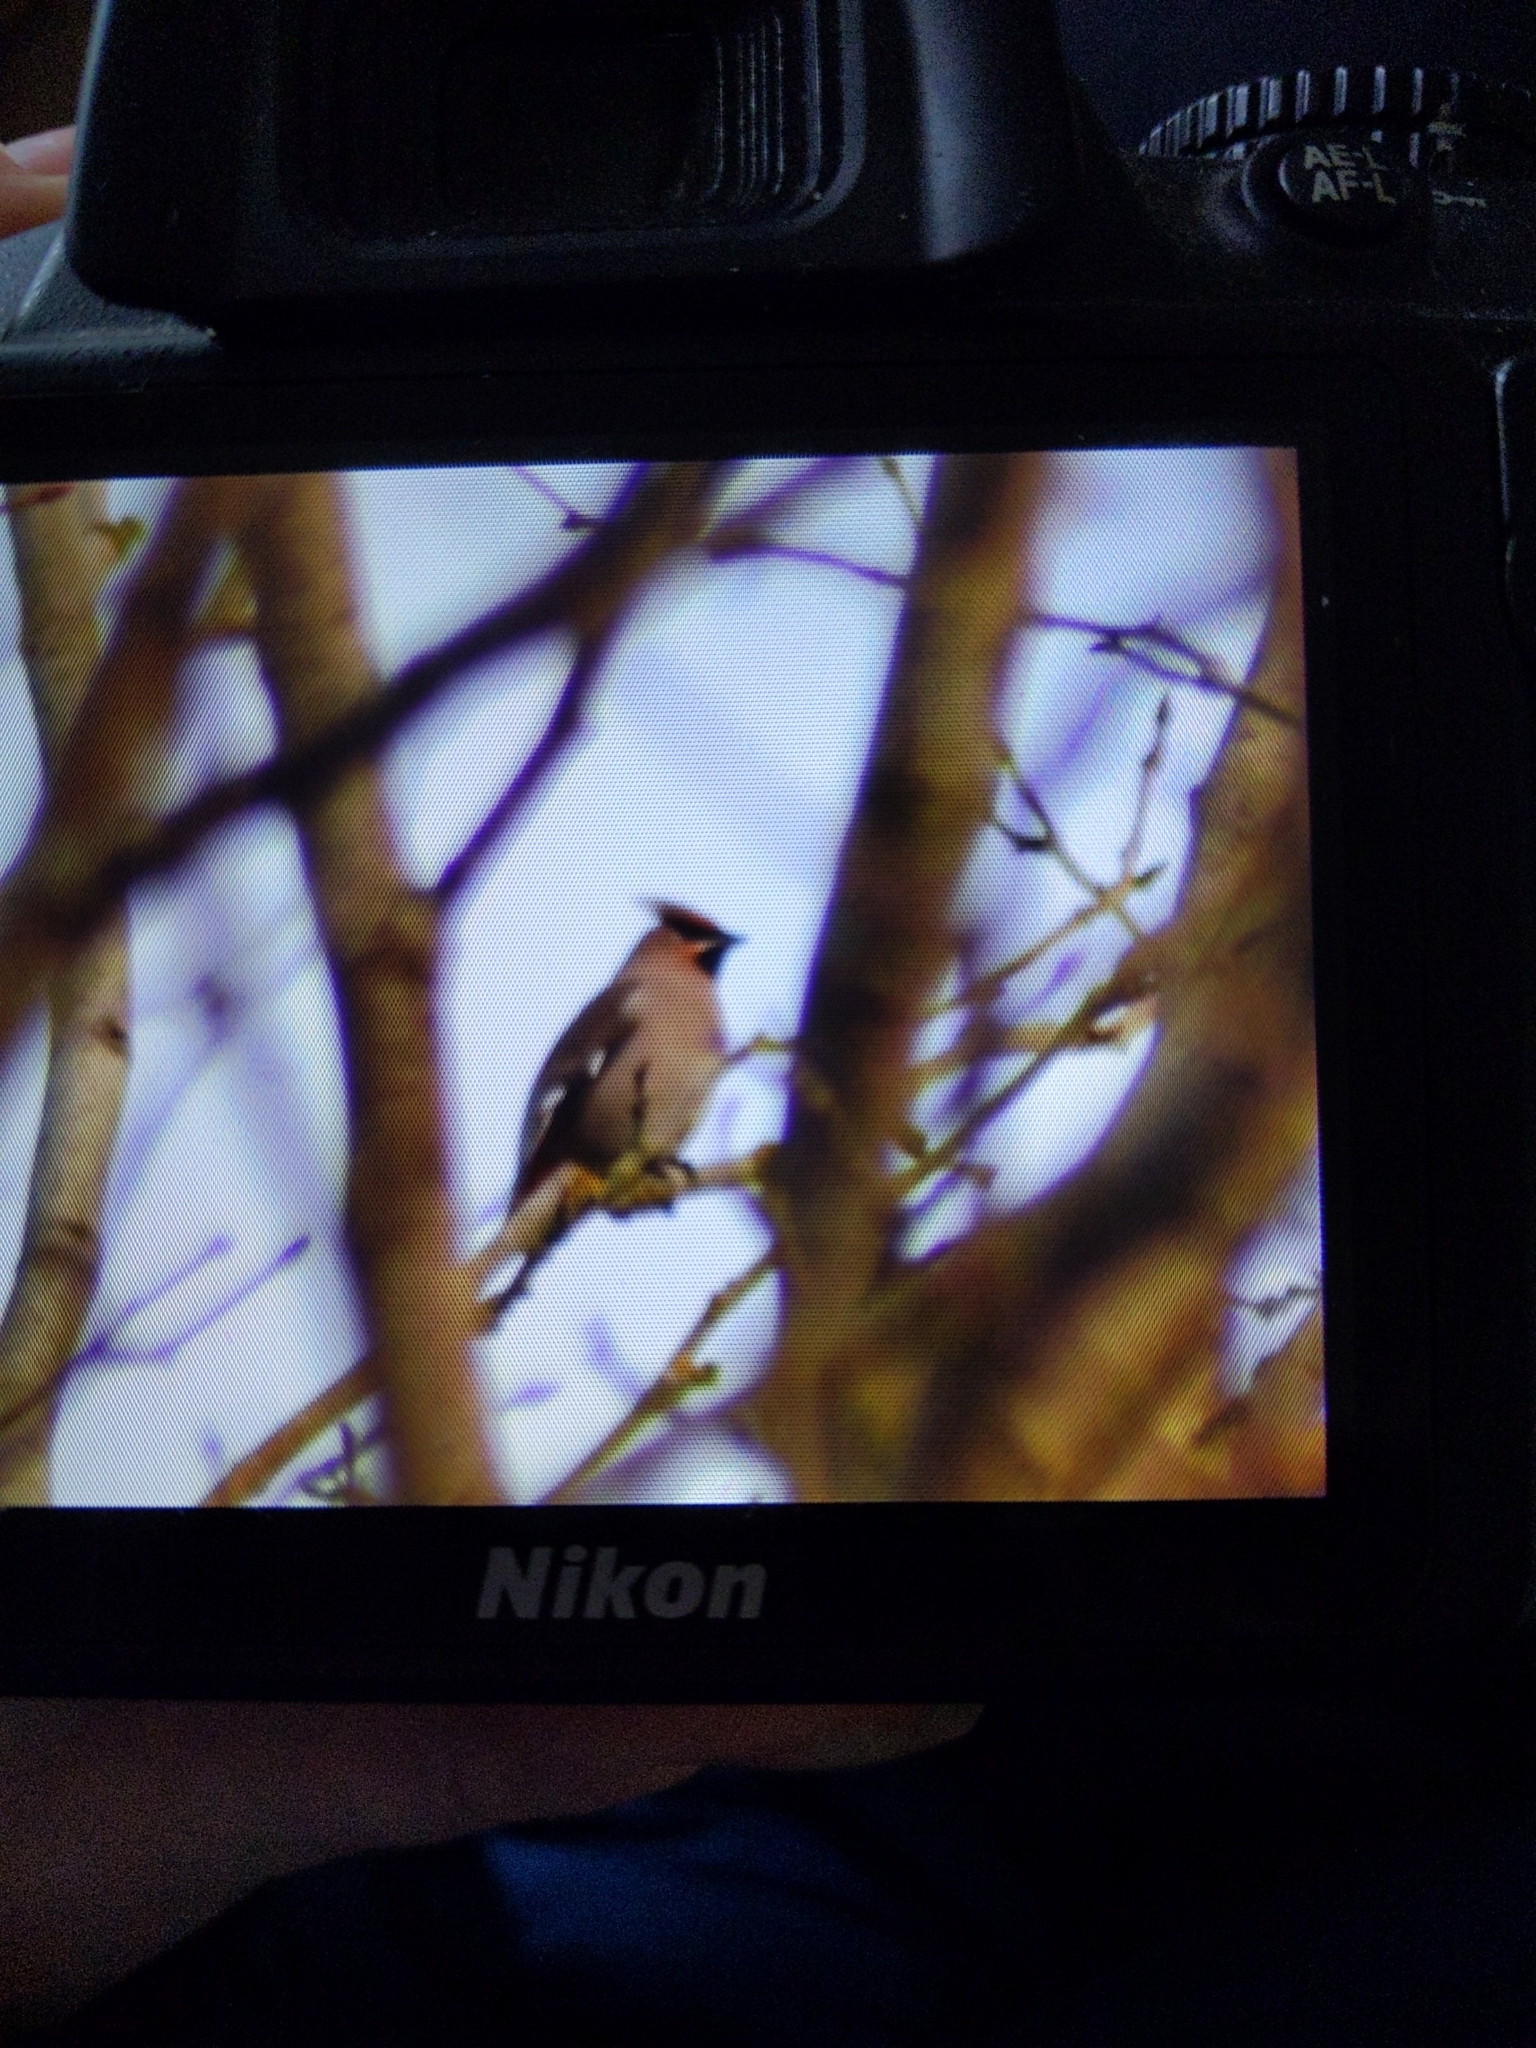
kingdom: Animalia
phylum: Chordata
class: Aves
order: Passeriformes
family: Bombycillidae
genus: Bombycilla
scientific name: Bombycilla garrulus
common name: Bohemian waxwing
